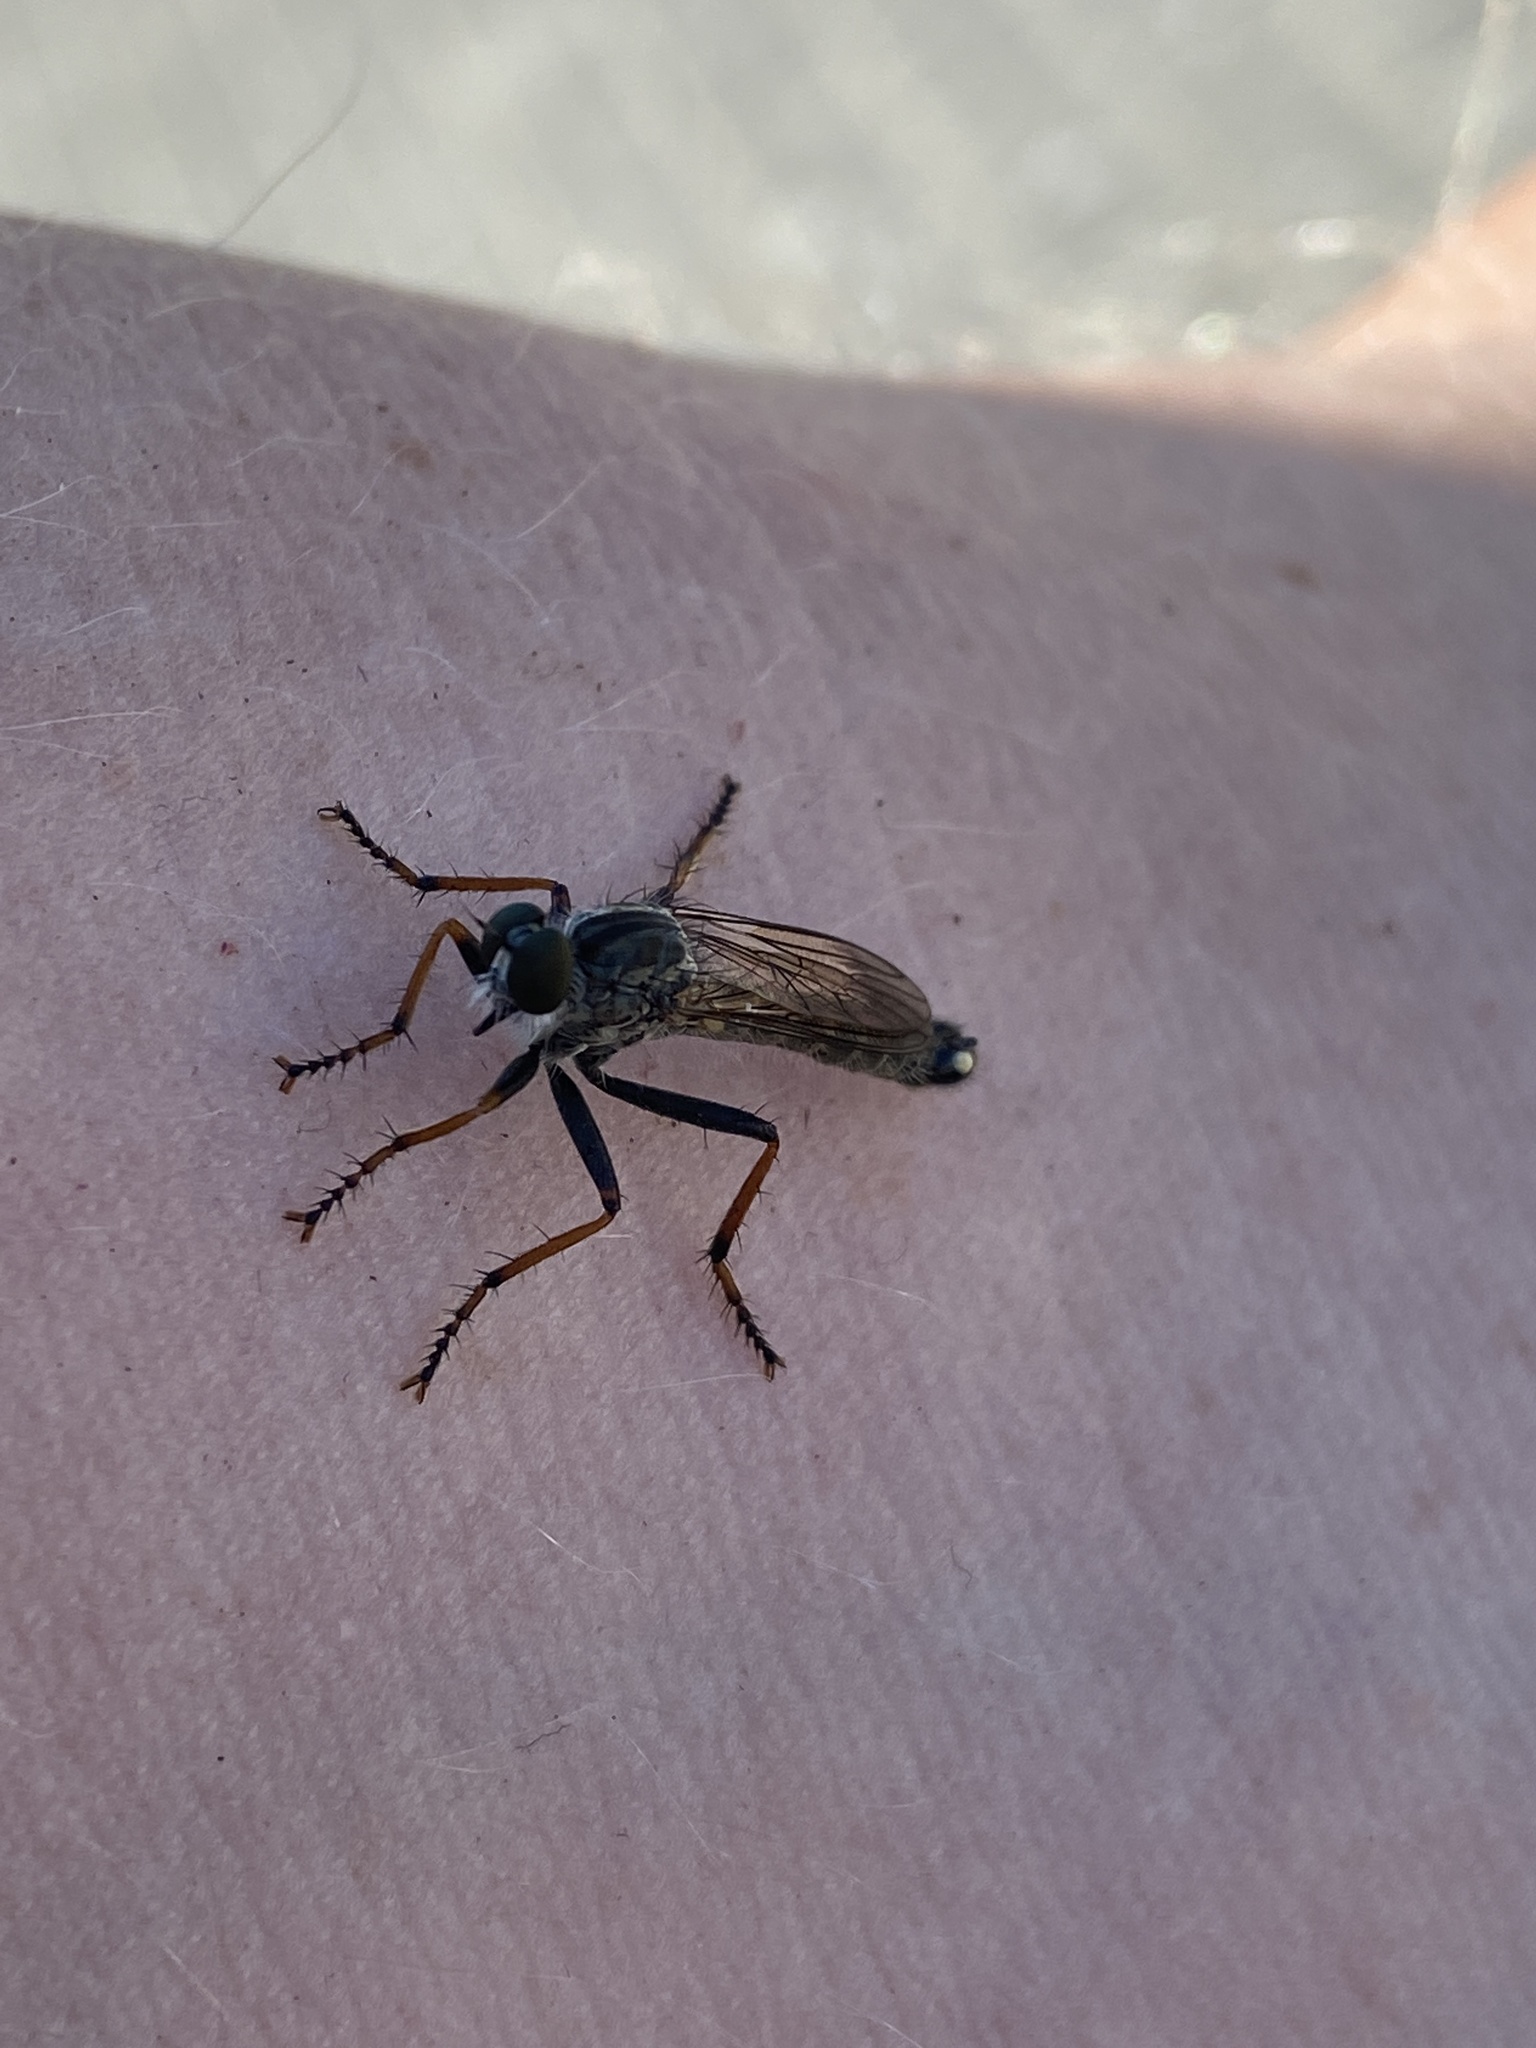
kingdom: Animalia
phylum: Arthropoda
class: Insecta
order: Diptera
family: Asilidae
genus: Paritamus
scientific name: Paritamus geniculatus
